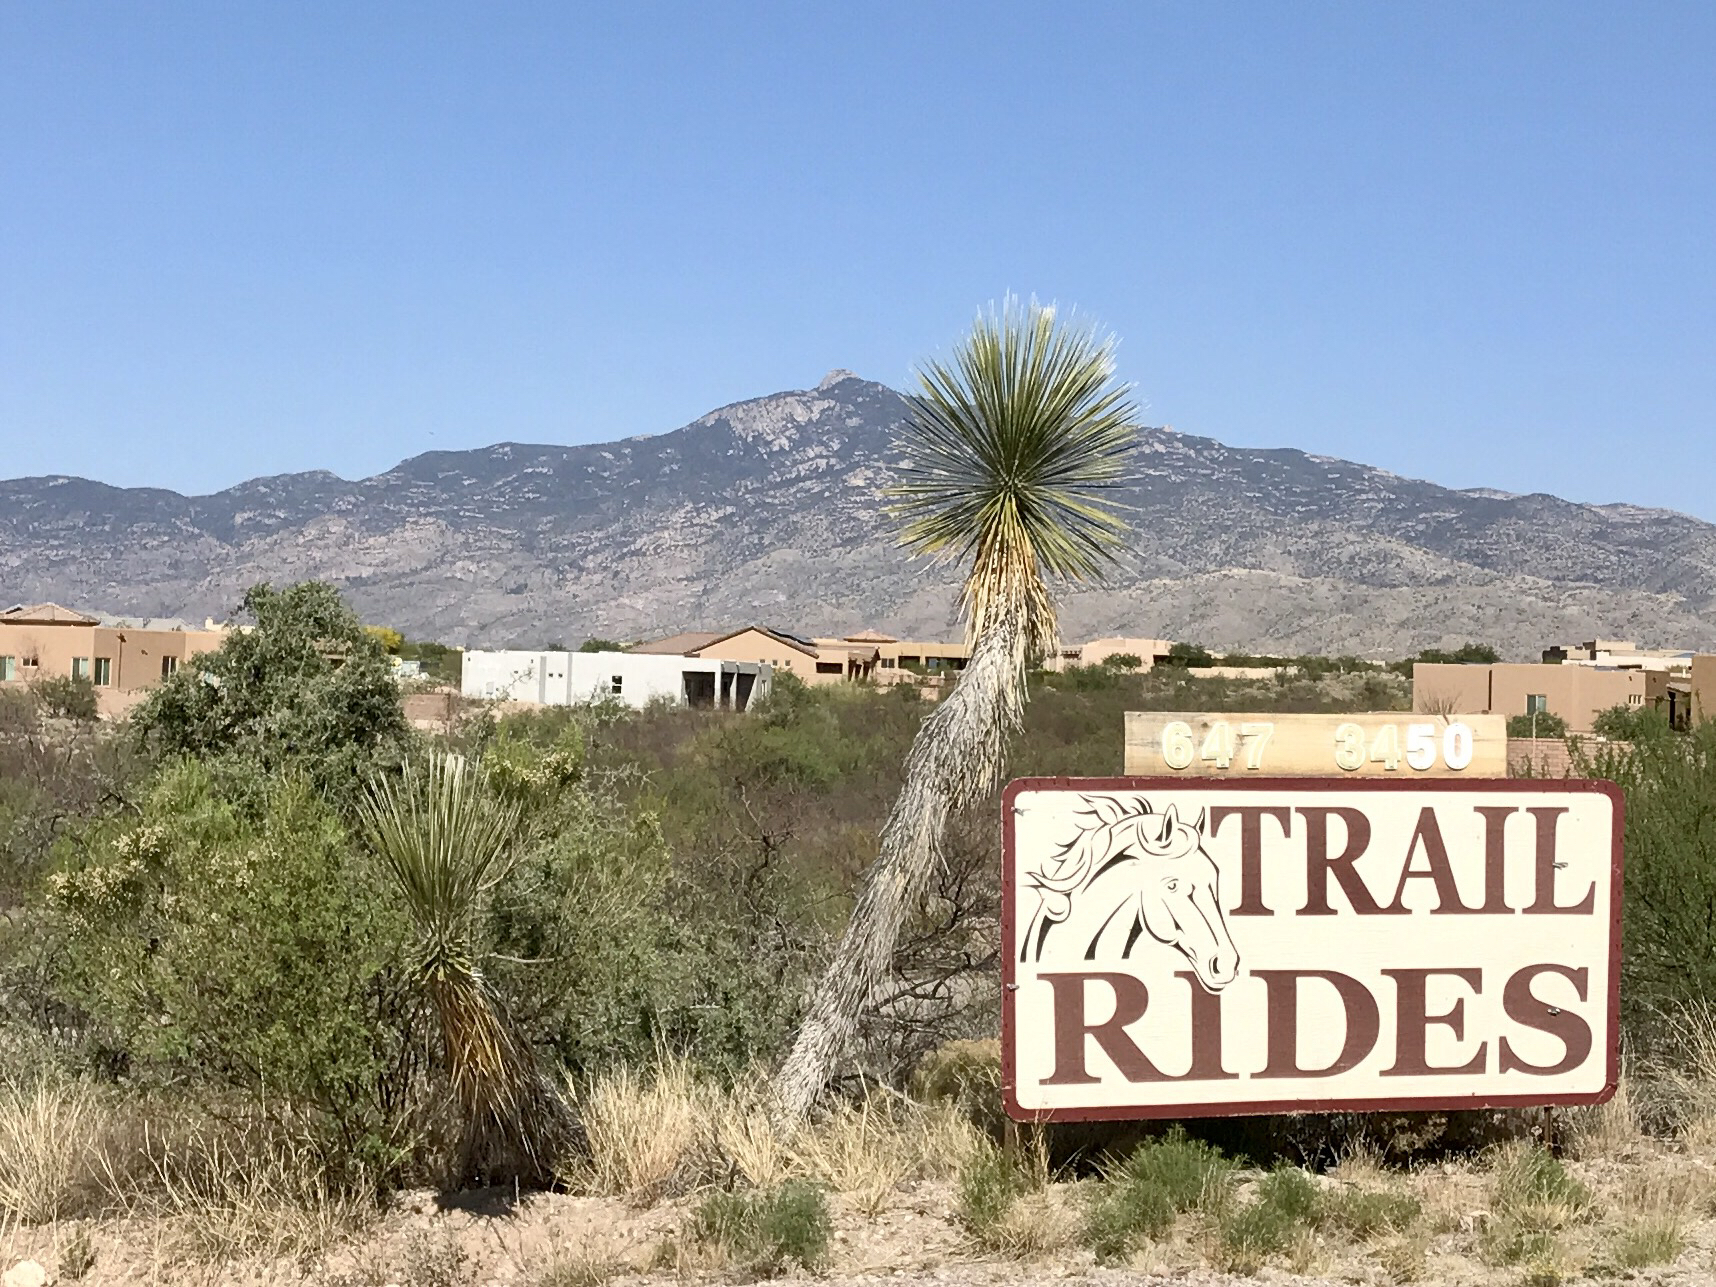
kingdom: Plantae
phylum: Tracheophyta
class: Liliopsida
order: Asparagales
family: Asparagaceae
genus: Yucca
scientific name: Yucca elata
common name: Palmella
